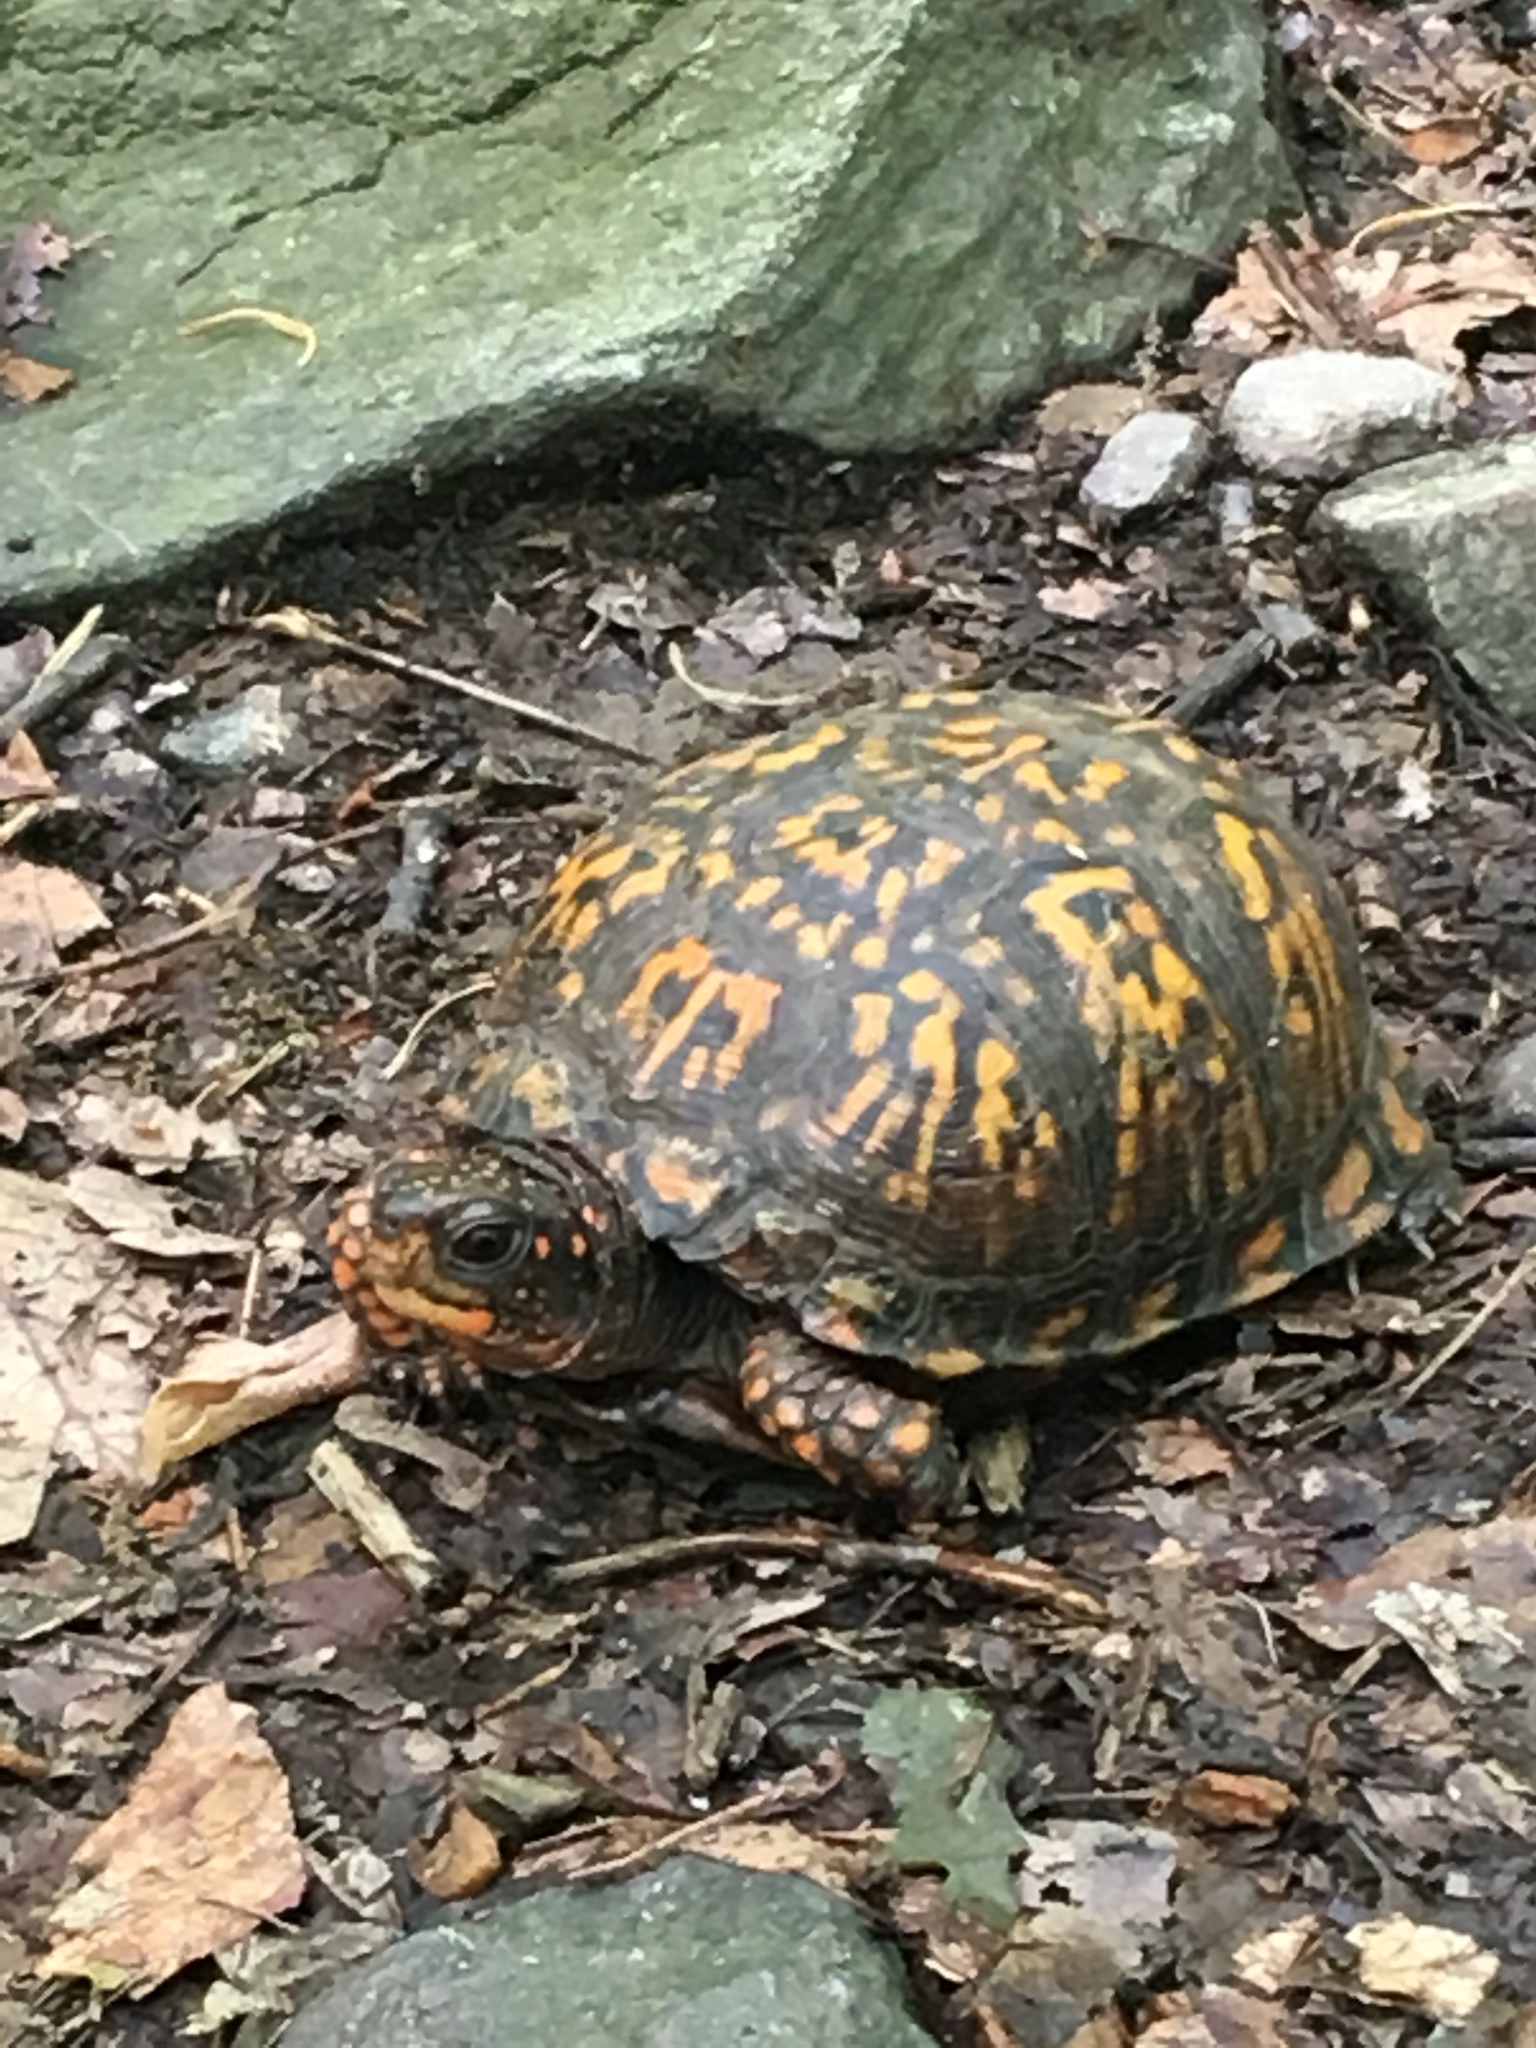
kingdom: Animalia
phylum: Chordata
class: Testudines
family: Emydidae
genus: Terrapene
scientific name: Terrapene carolina
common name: Common box turtle
